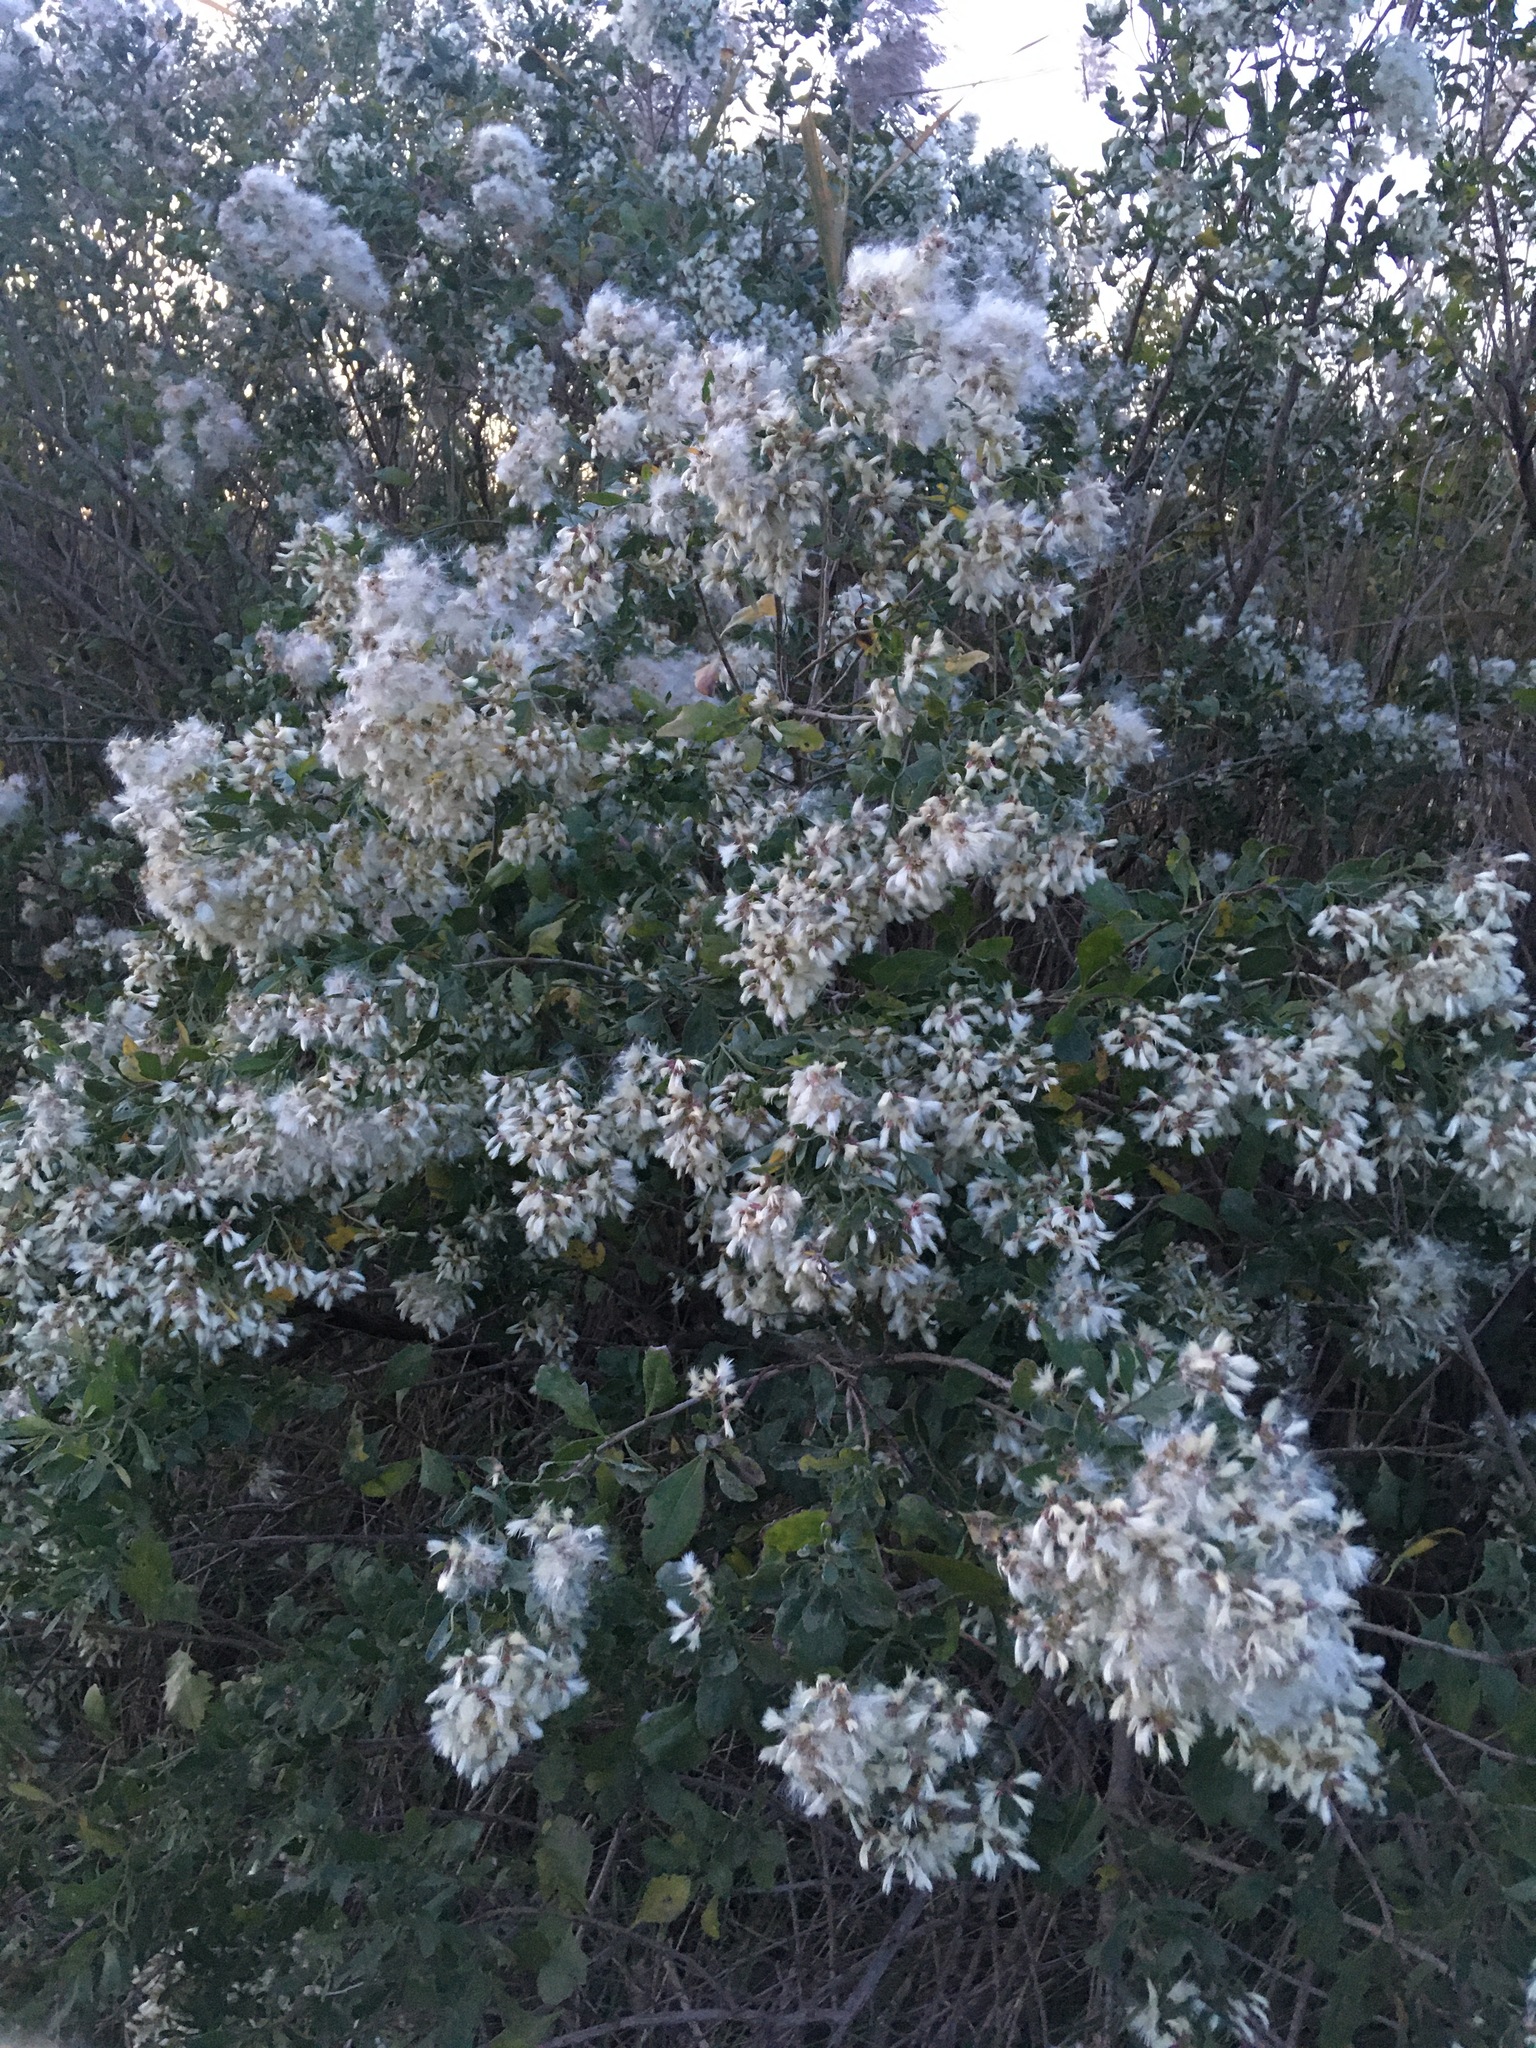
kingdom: Plantae
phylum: Tracheophyta
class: Magnoliopsida
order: Asterales
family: Asteraceae
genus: Baccharis
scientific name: Baccharis halimifolia
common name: Eastern baccharis
